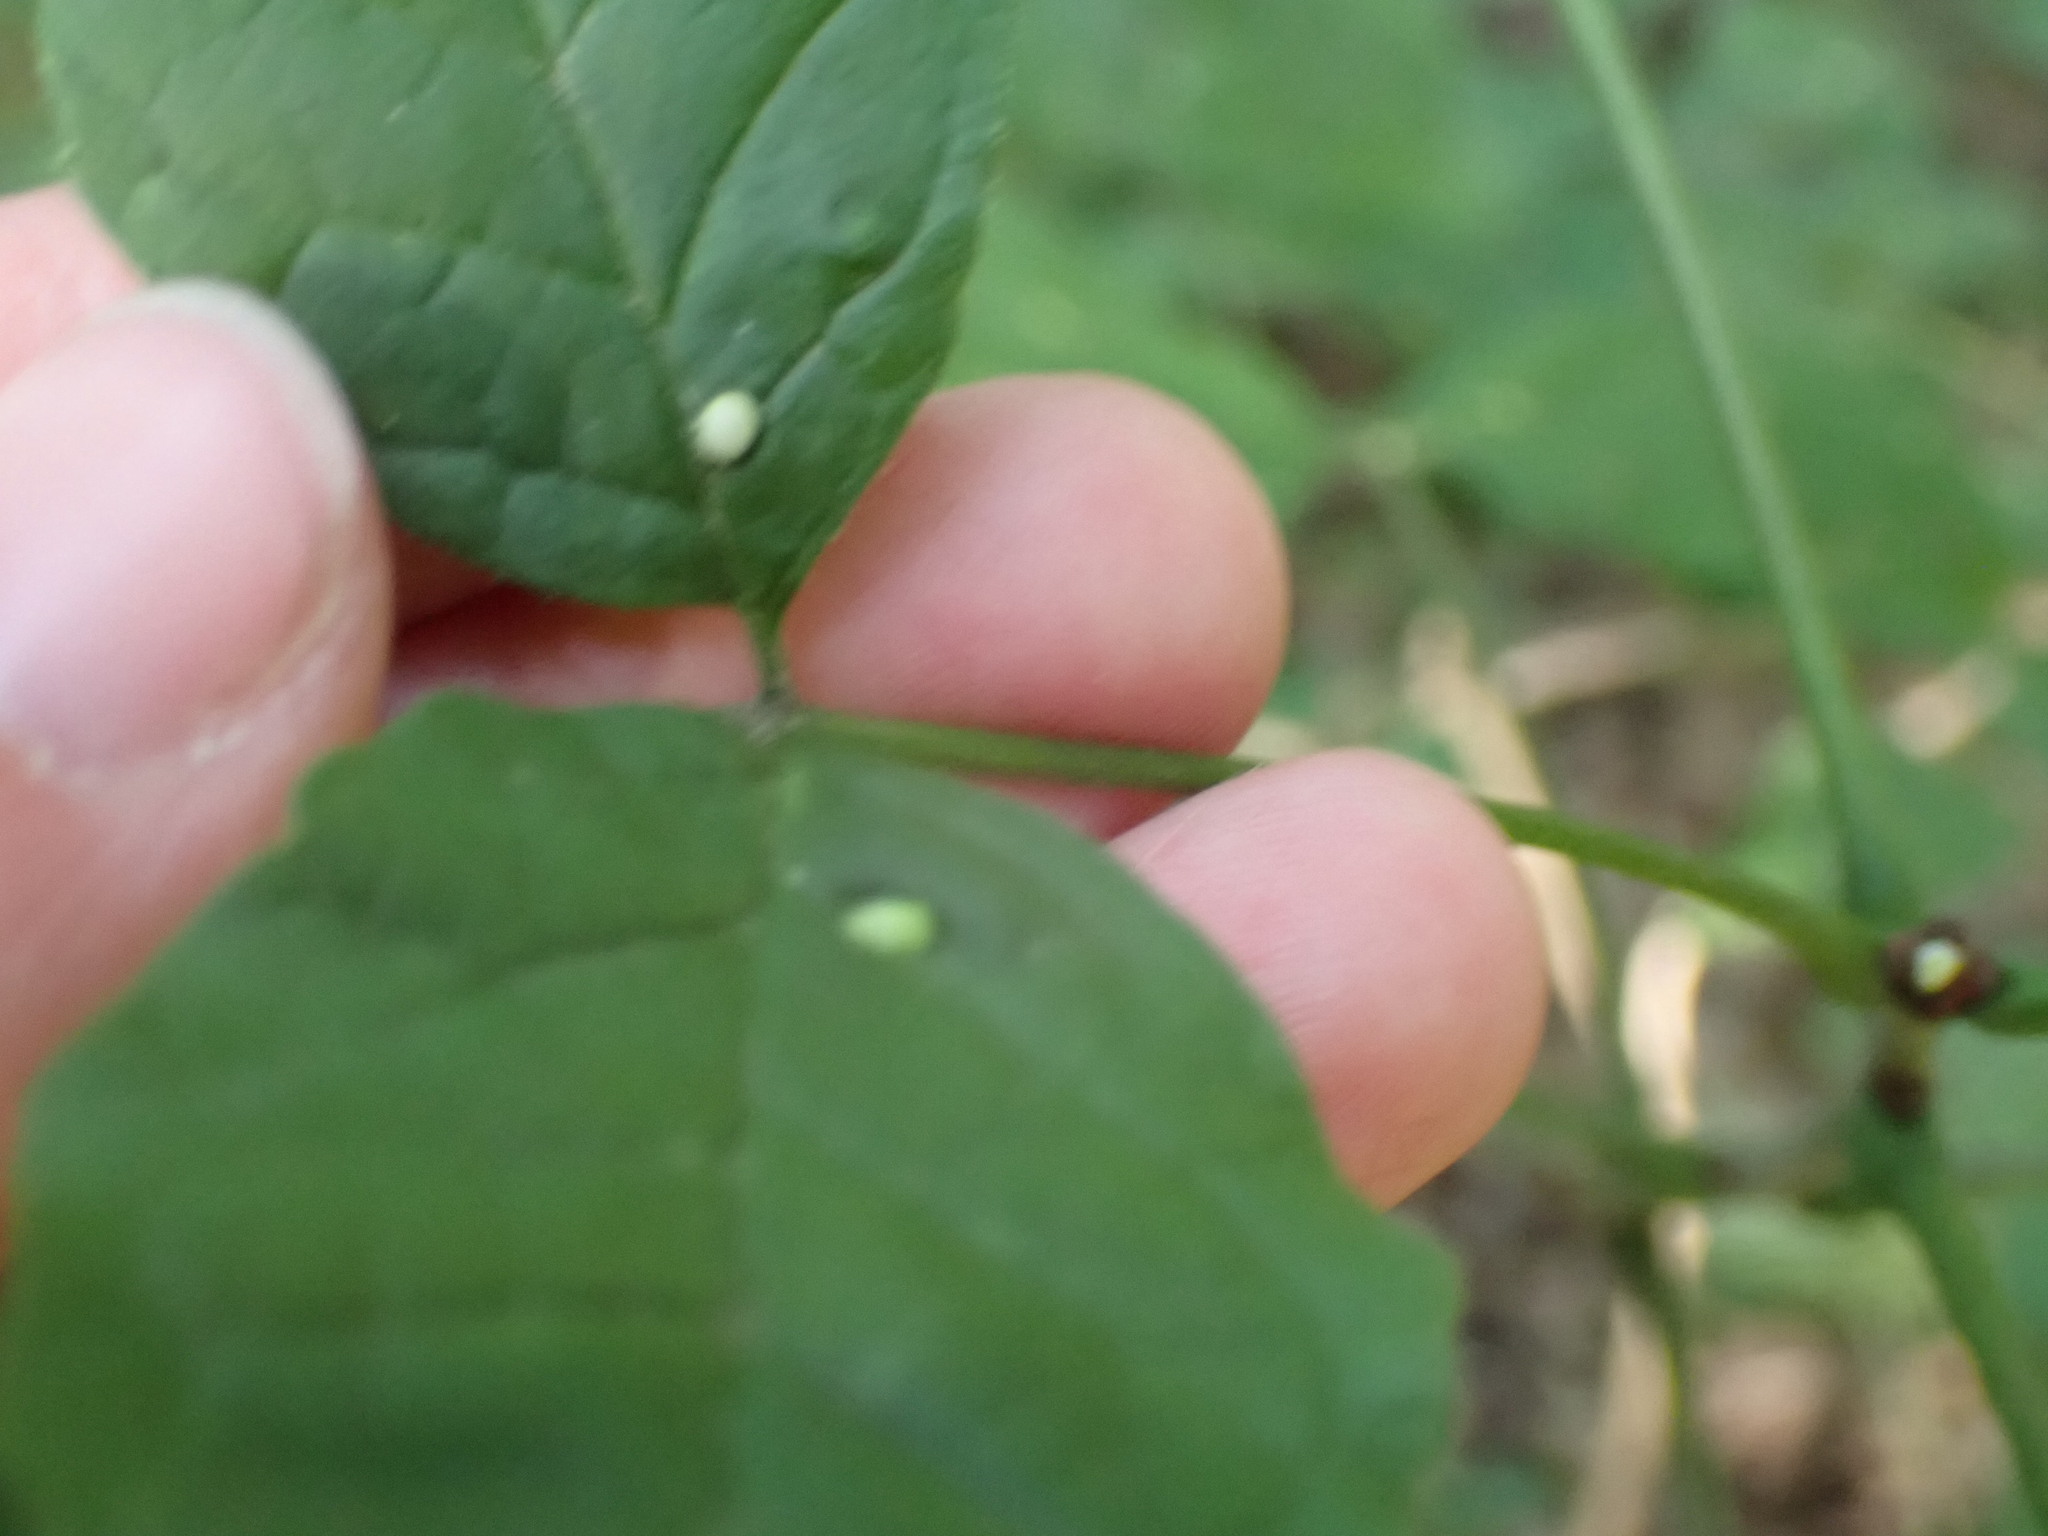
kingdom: Animalia
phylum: Arthropoda
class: Arachnida
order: Trombidiformes
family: Eriophyidae
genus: Aceria
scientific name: Aceria fraxinicola
